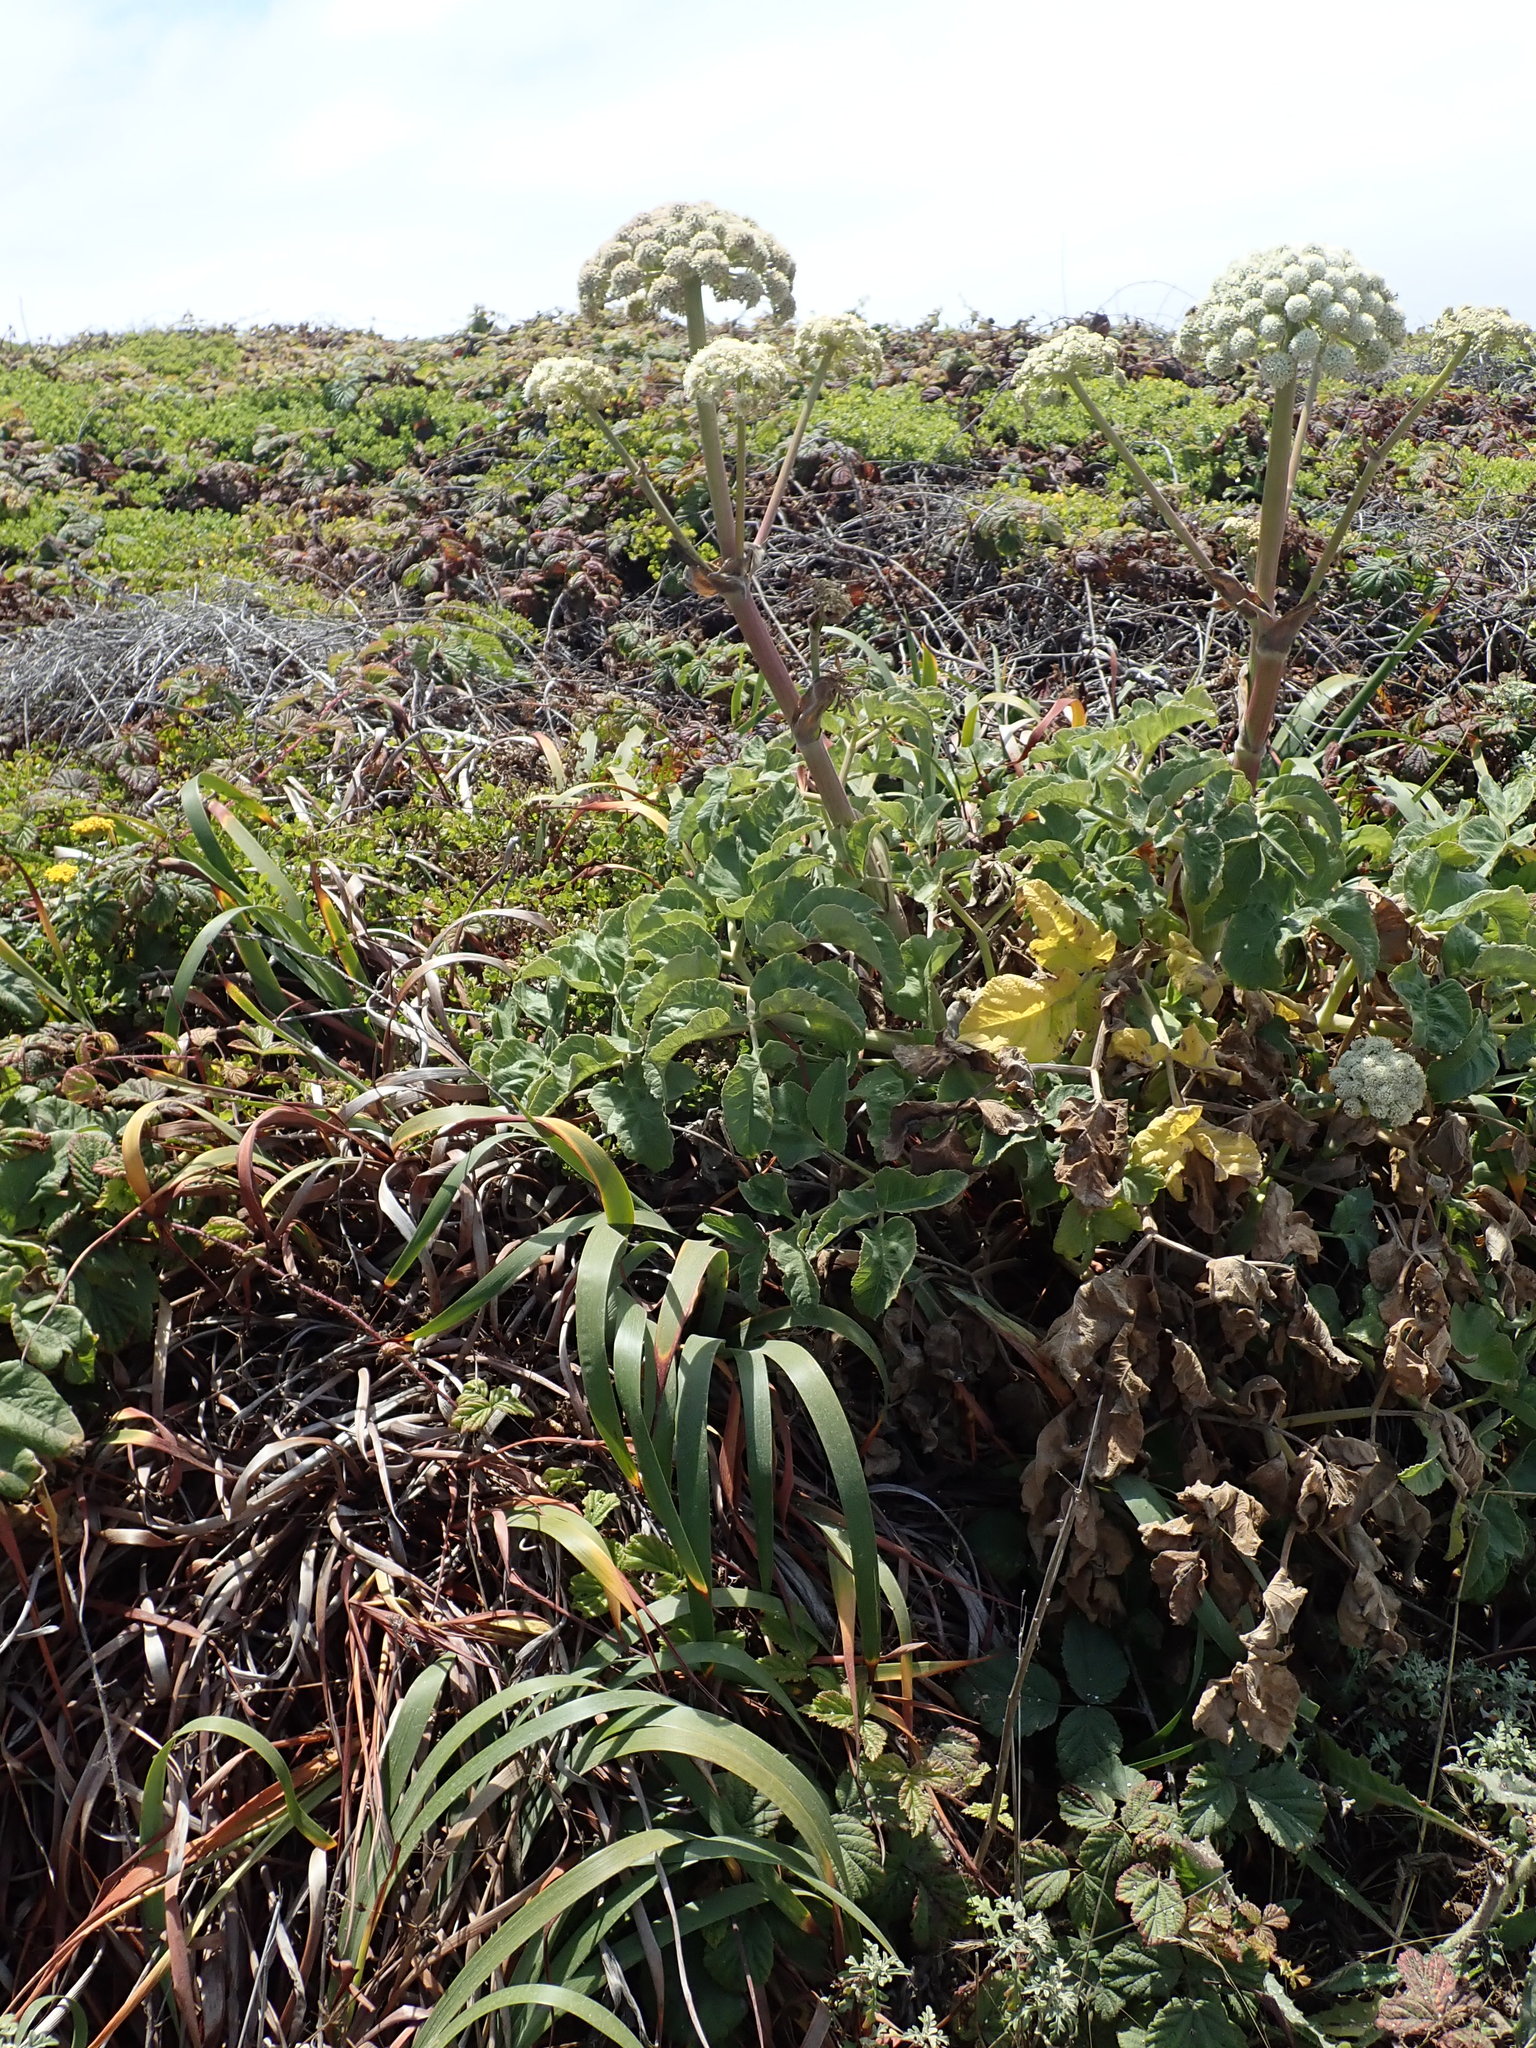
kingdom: Plantae
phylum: Tracheophyta
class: Magnoliopsida
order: Apiales
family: Apiaceae
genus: Angelica
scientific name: Angelica hendersonii
